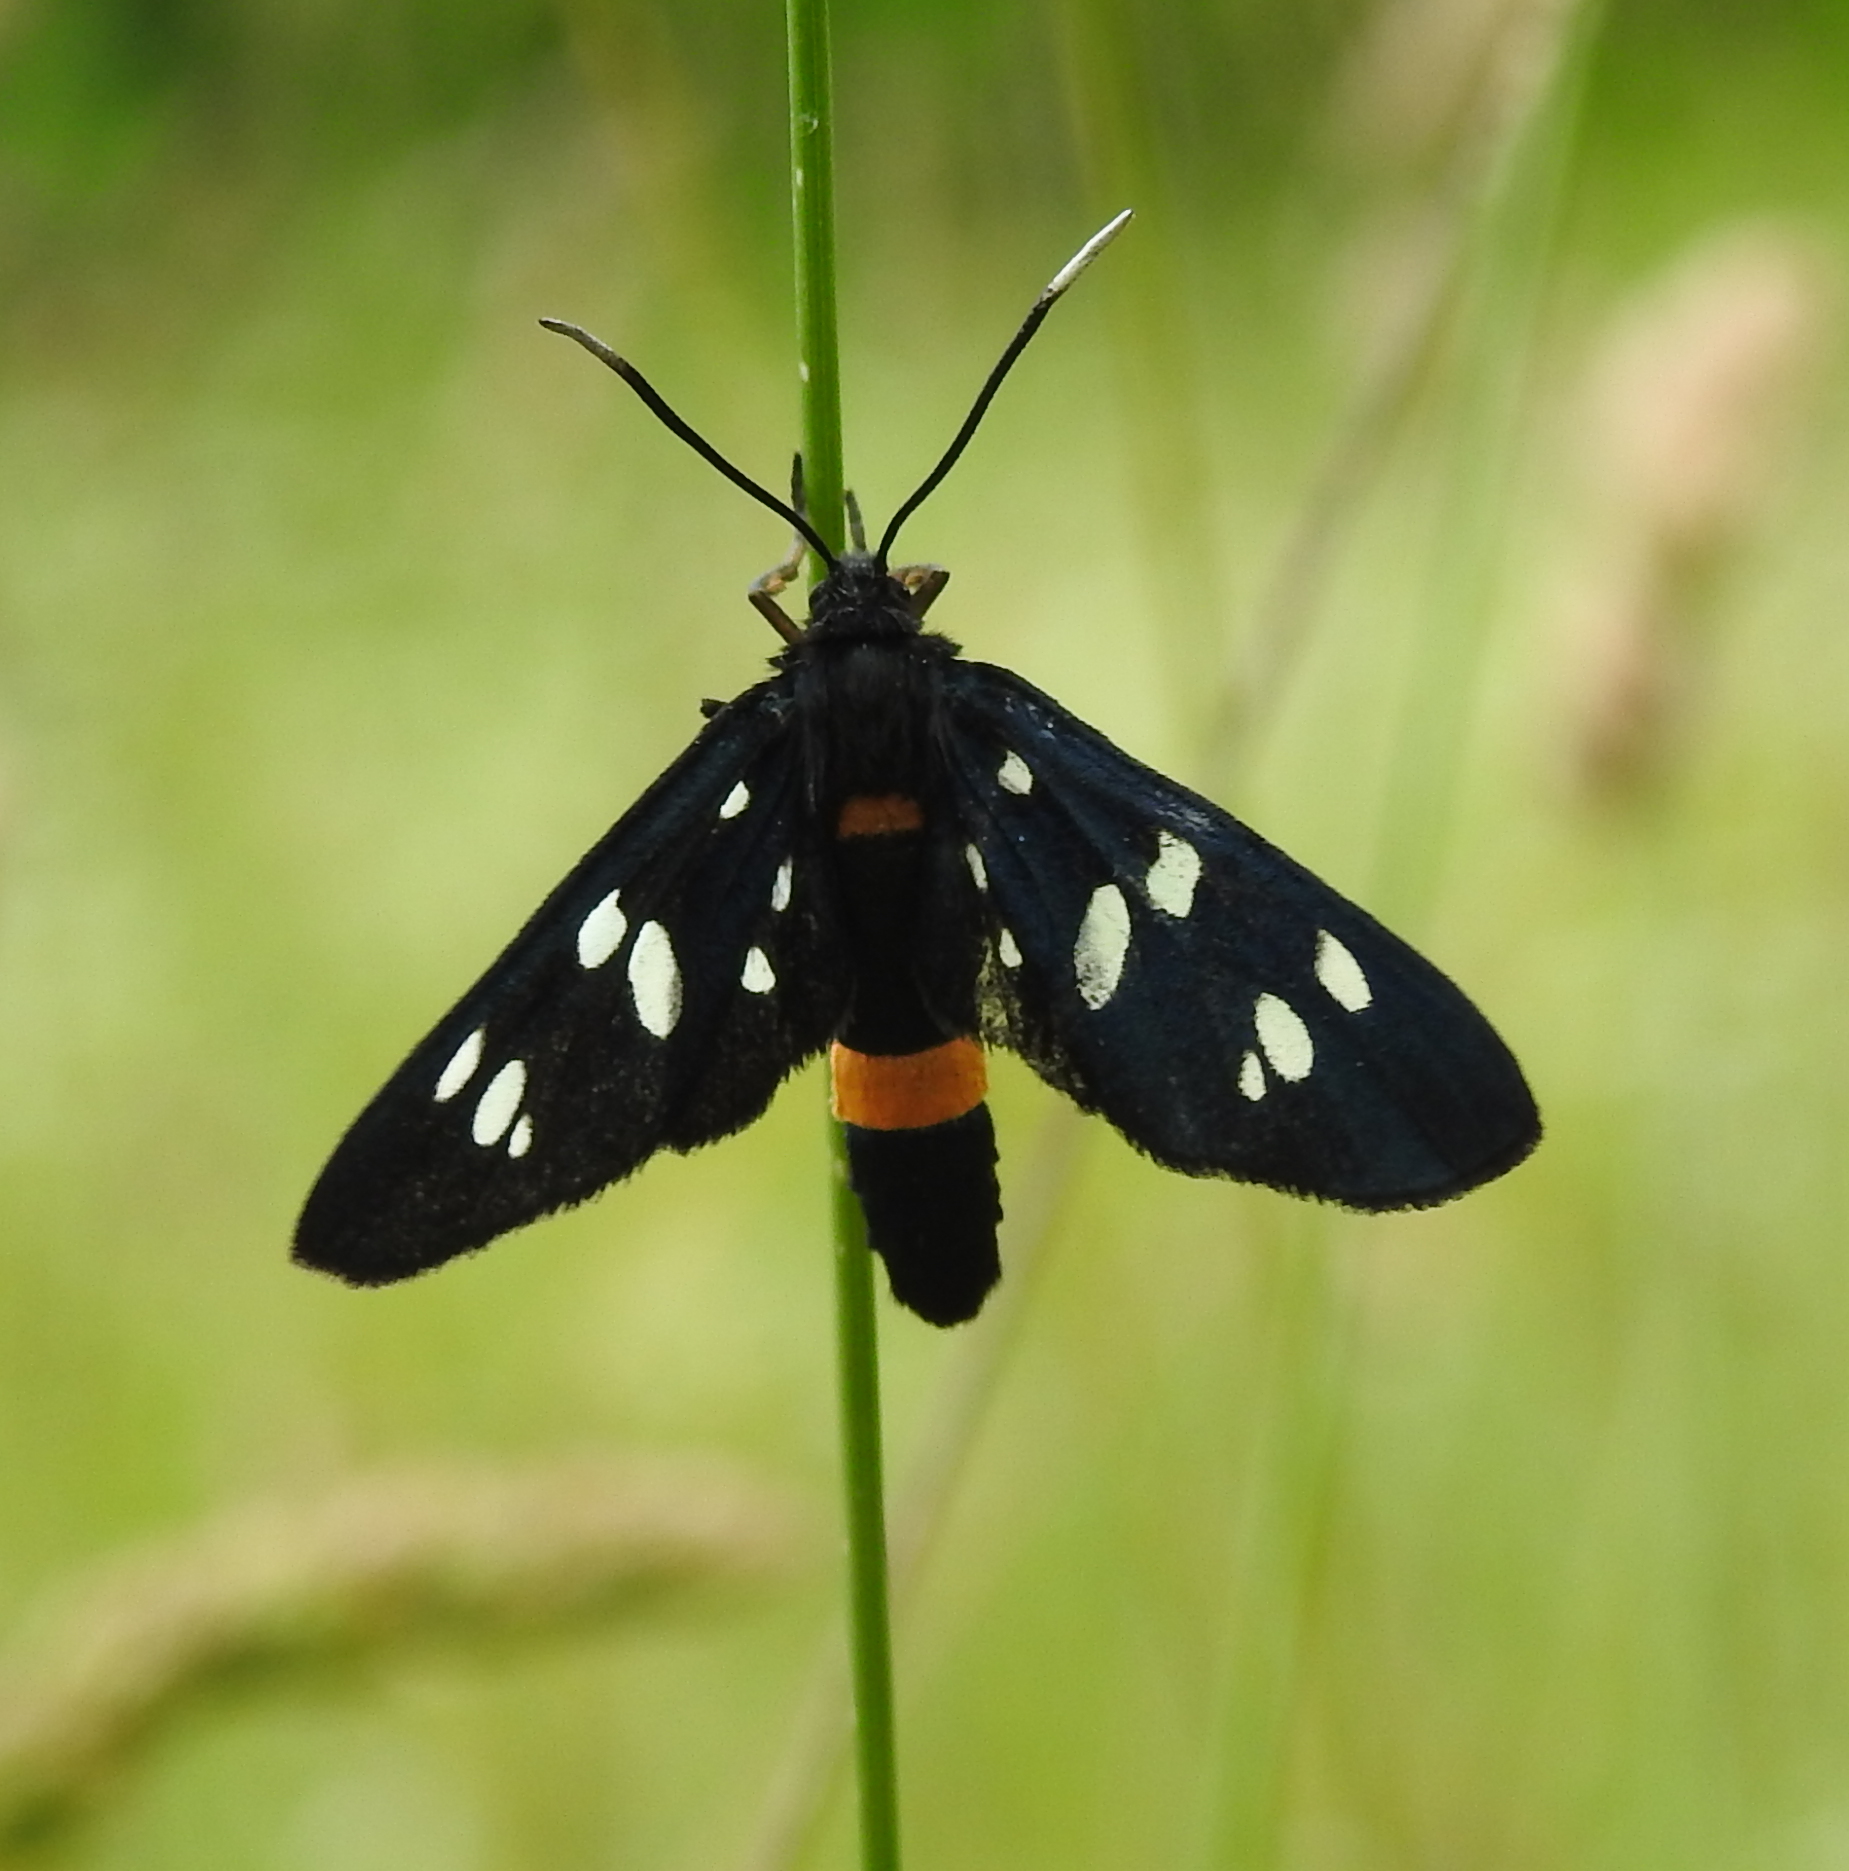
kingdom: Animalia
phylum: Arthropoda
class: Insecta
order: Lepidoptera
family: Erebidae
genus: Amata
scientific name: Amata phegea
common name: Nine-spotted
